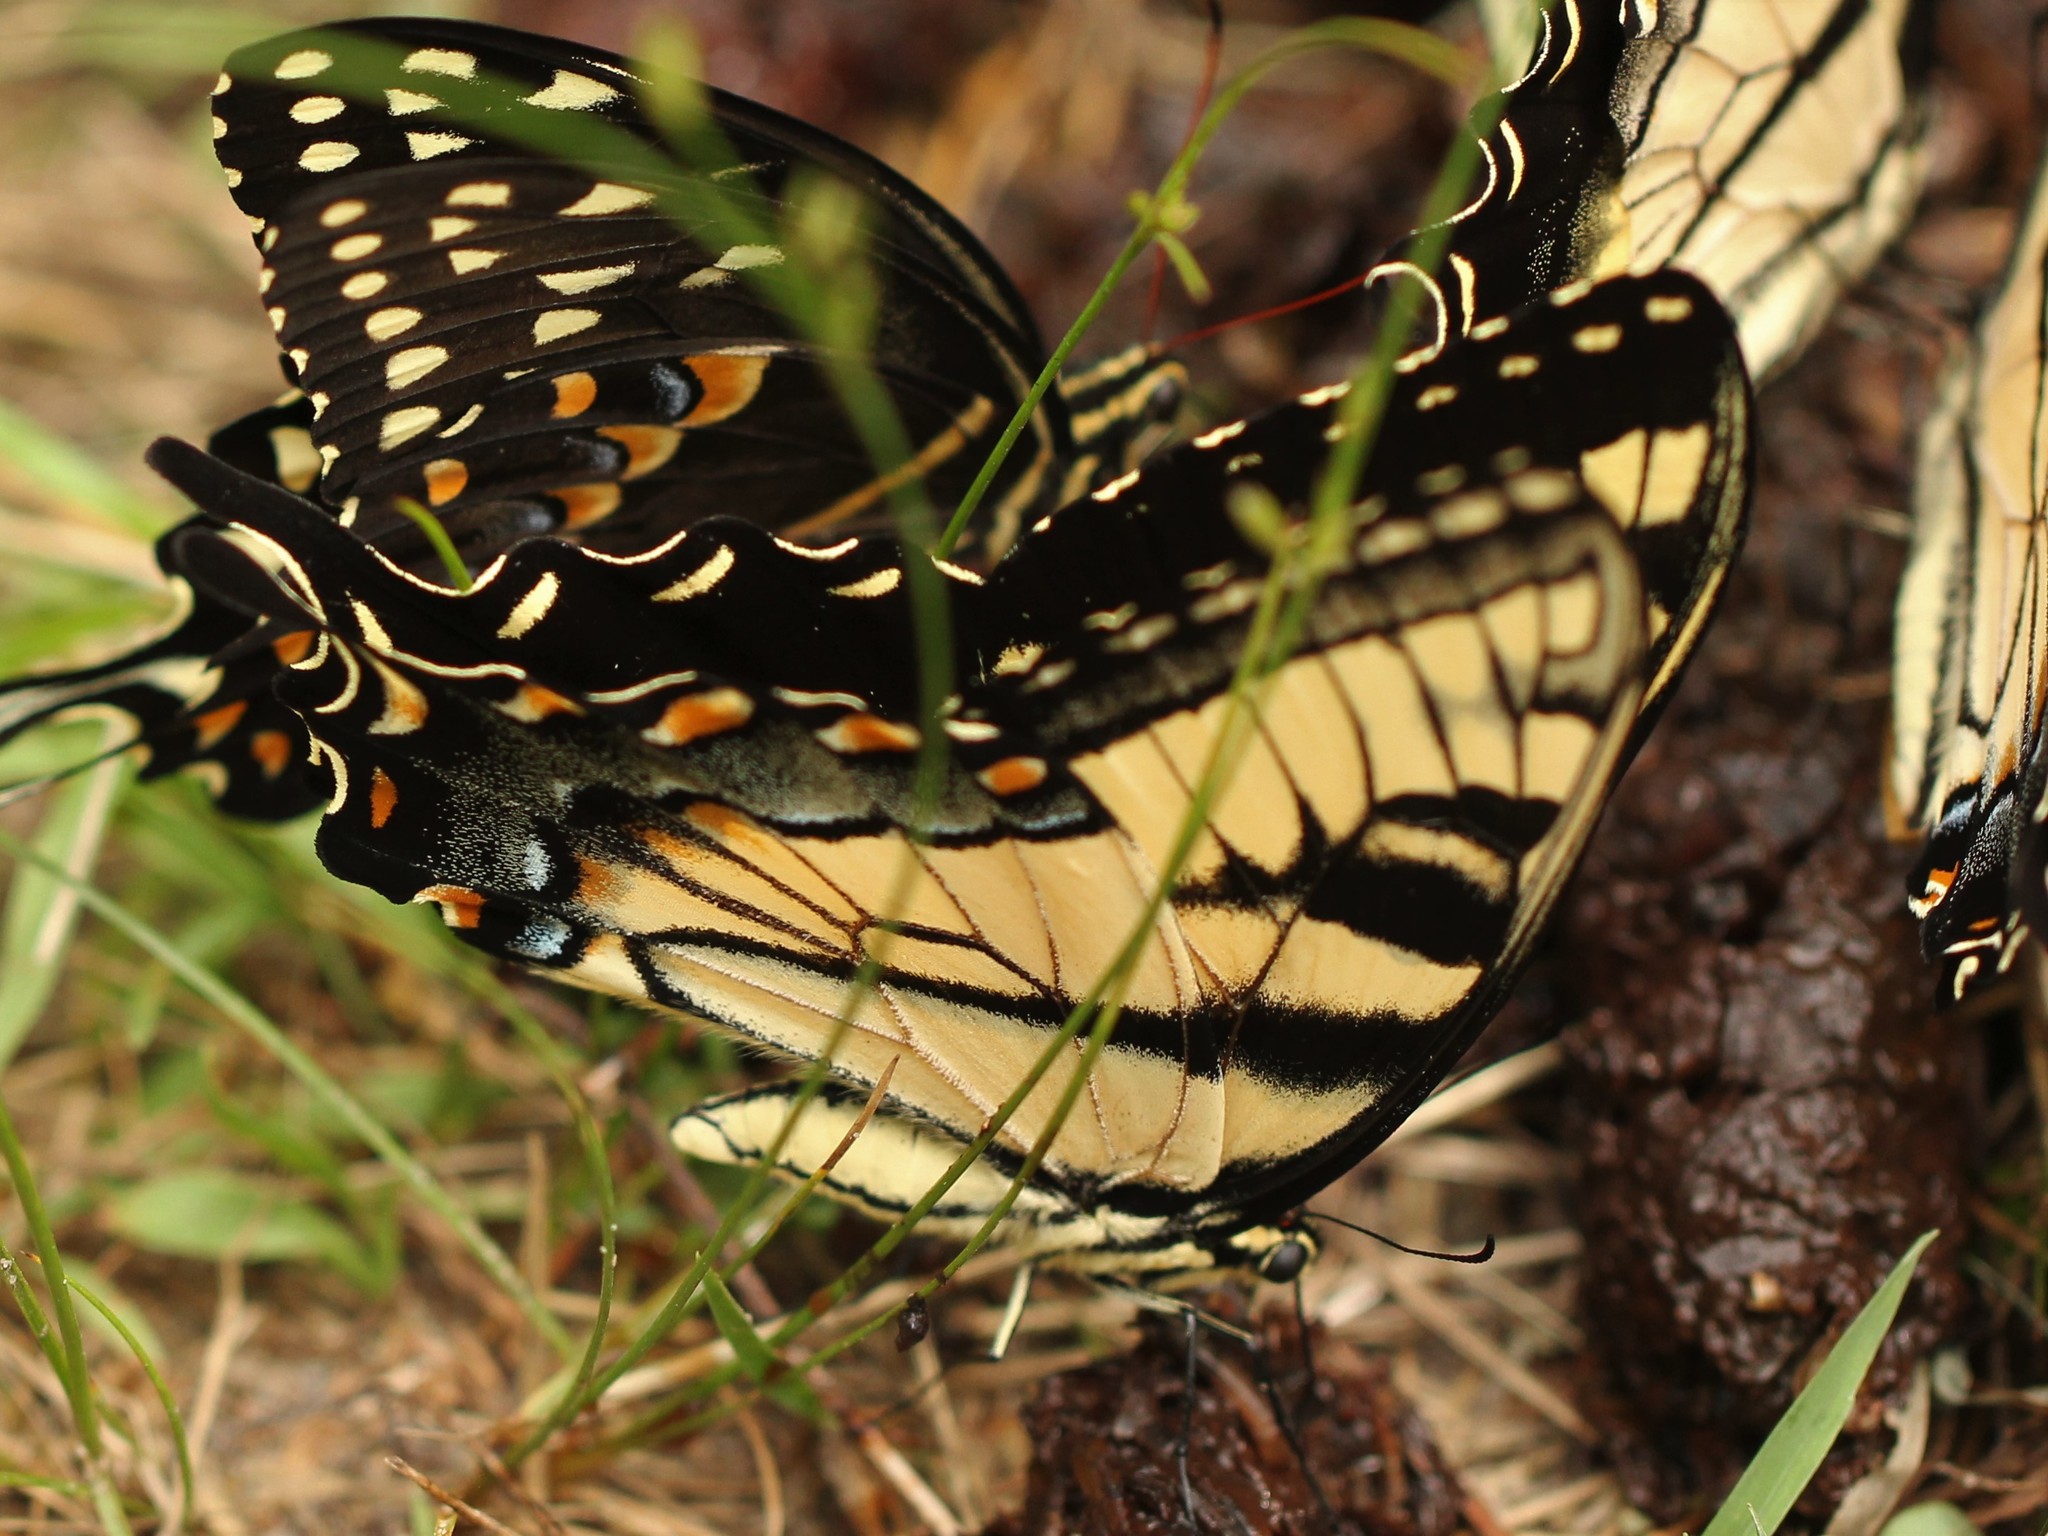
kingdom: Animalia
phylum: Arthropoda
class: Insecta
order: Lepidoptera
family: Papilionidae
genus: Papilio
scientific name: Papilio glaucus
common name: Tiger swallowtail
